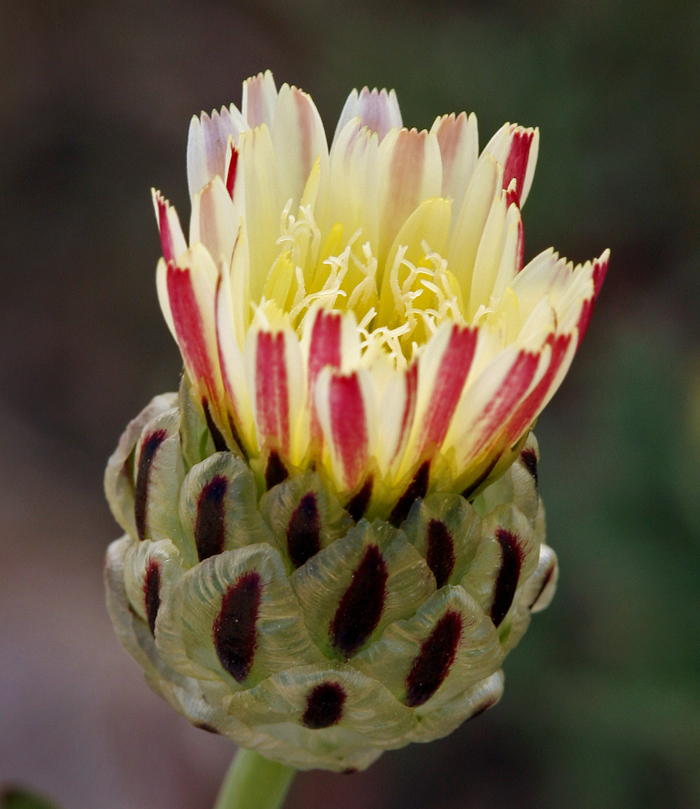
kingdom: Plantae
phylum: Tracheophyta
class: Magnoliopsida
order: Asterales
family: Asteraceae
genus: Malacothrix
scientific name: Malacothrix coulteri
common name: Snake's-head
